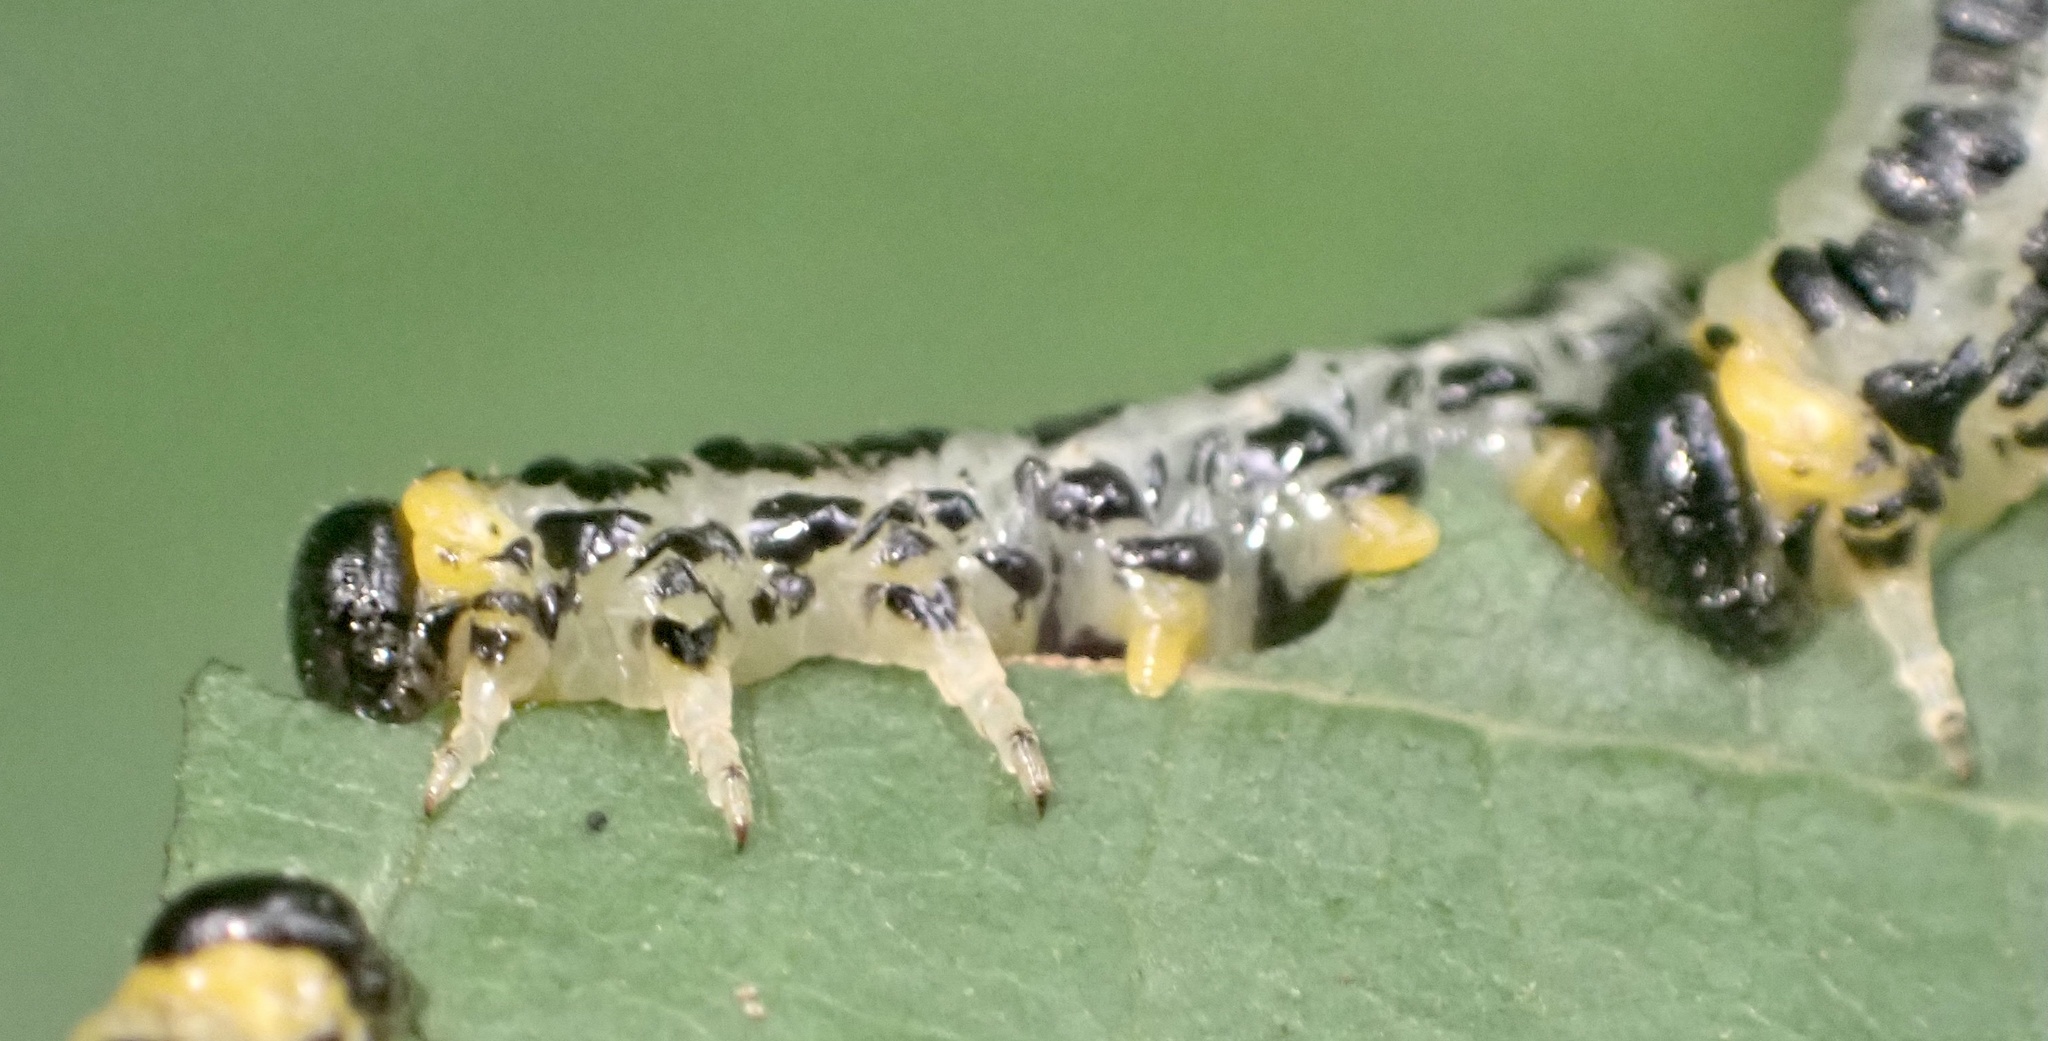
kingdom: Animalia
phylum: Arthropoda
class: Insecta
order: Hymenoptera
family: Tenthredinidae
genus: Craesus
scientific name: Craesus septentrionalis
